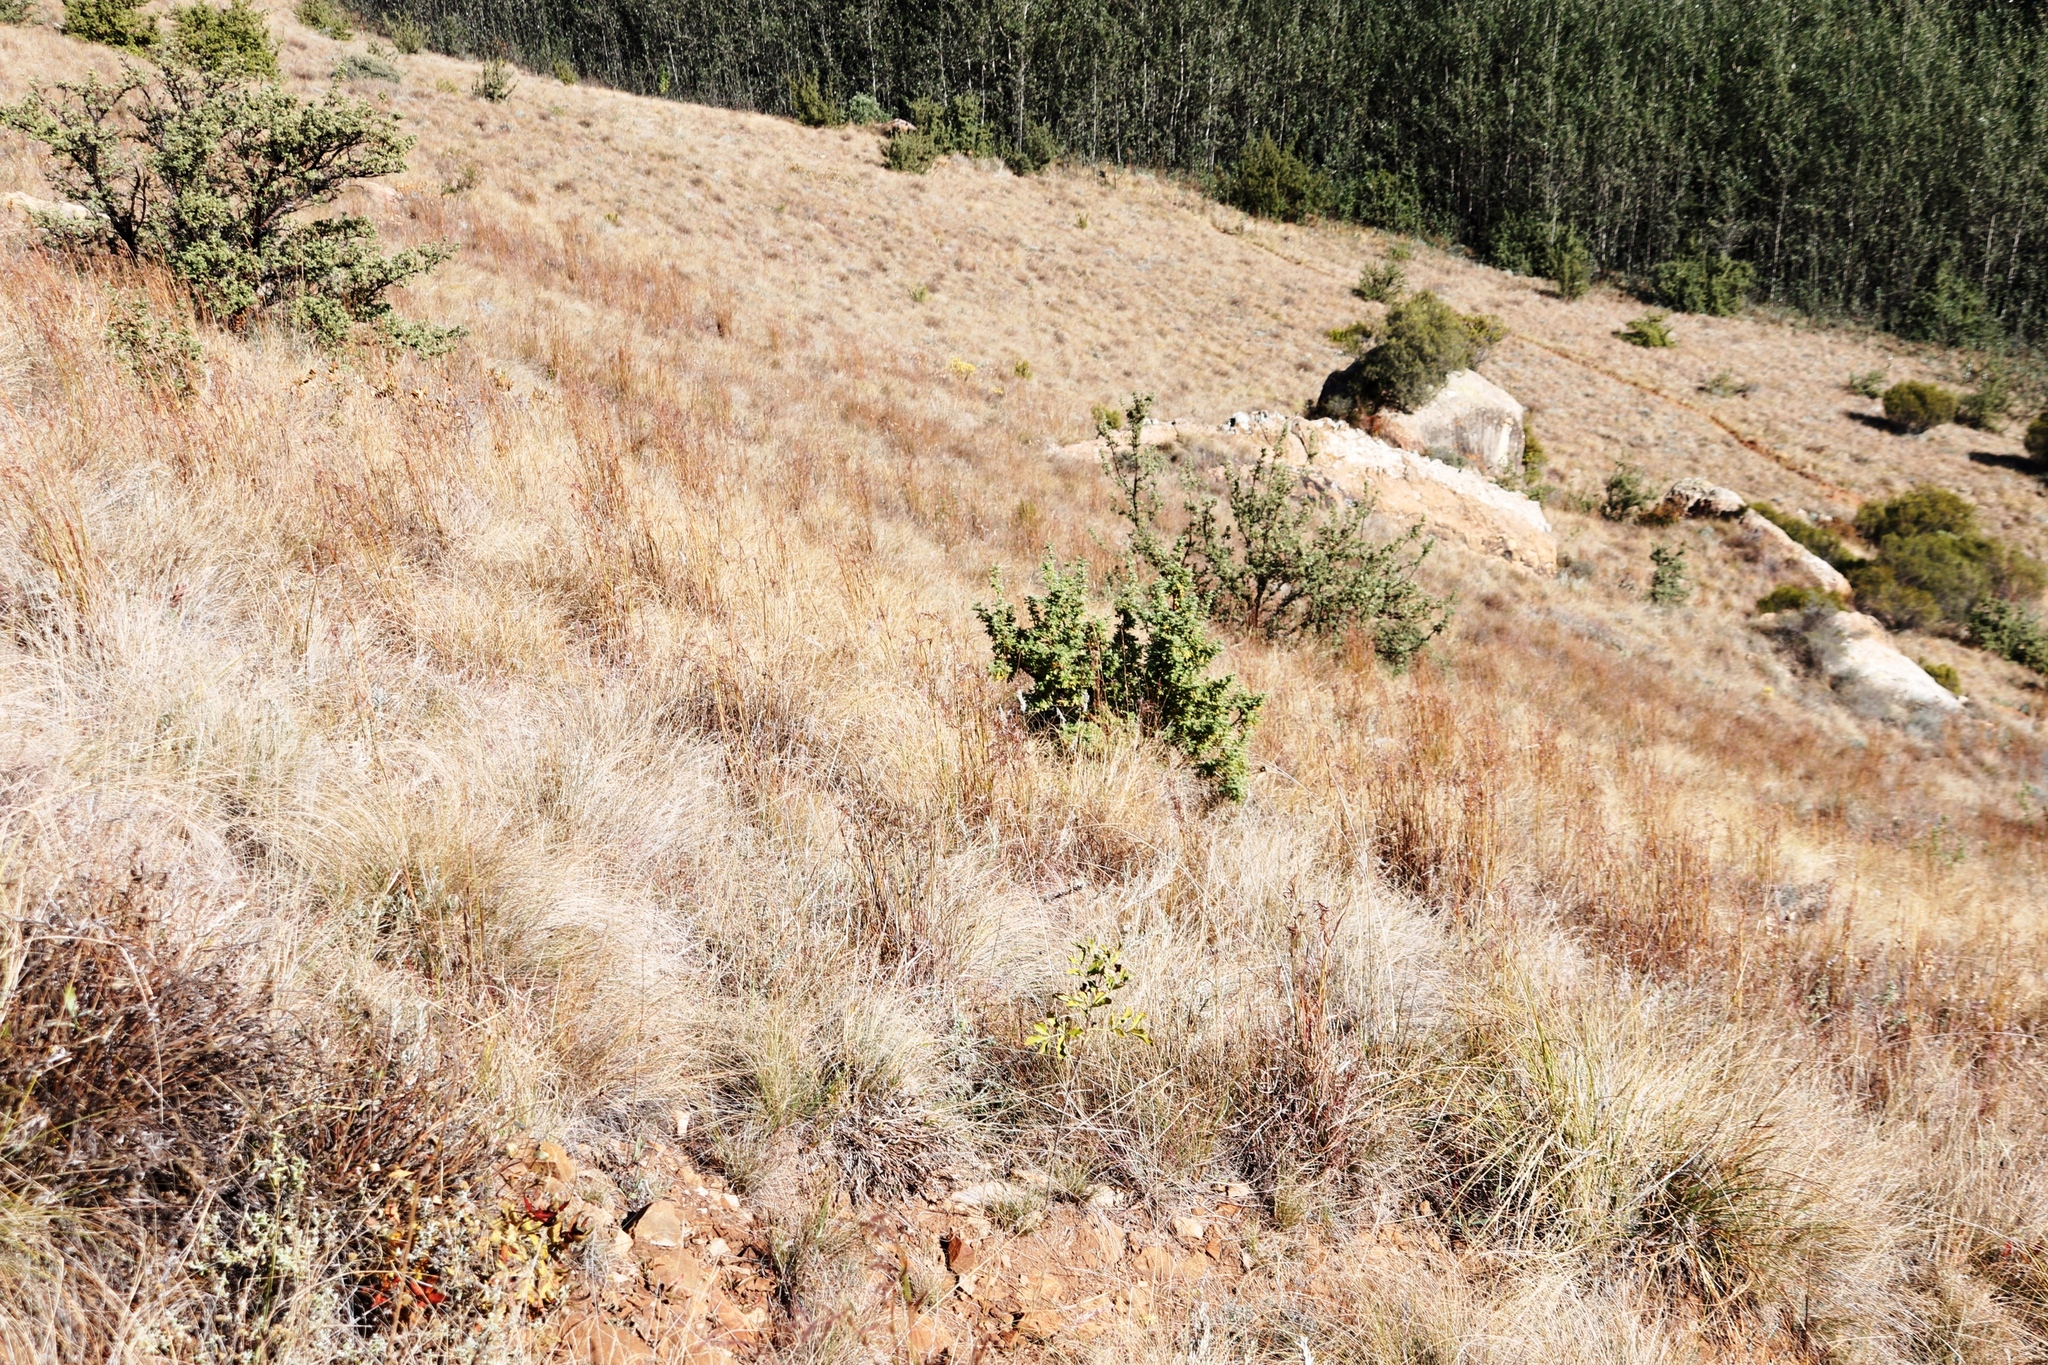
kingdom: Plantae
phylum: Tracheophyta
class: Magnoliopsida
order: Rosales
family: Rosaceae
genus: Leucosidea
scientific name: Leucosidea sericea
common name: Oldwood
